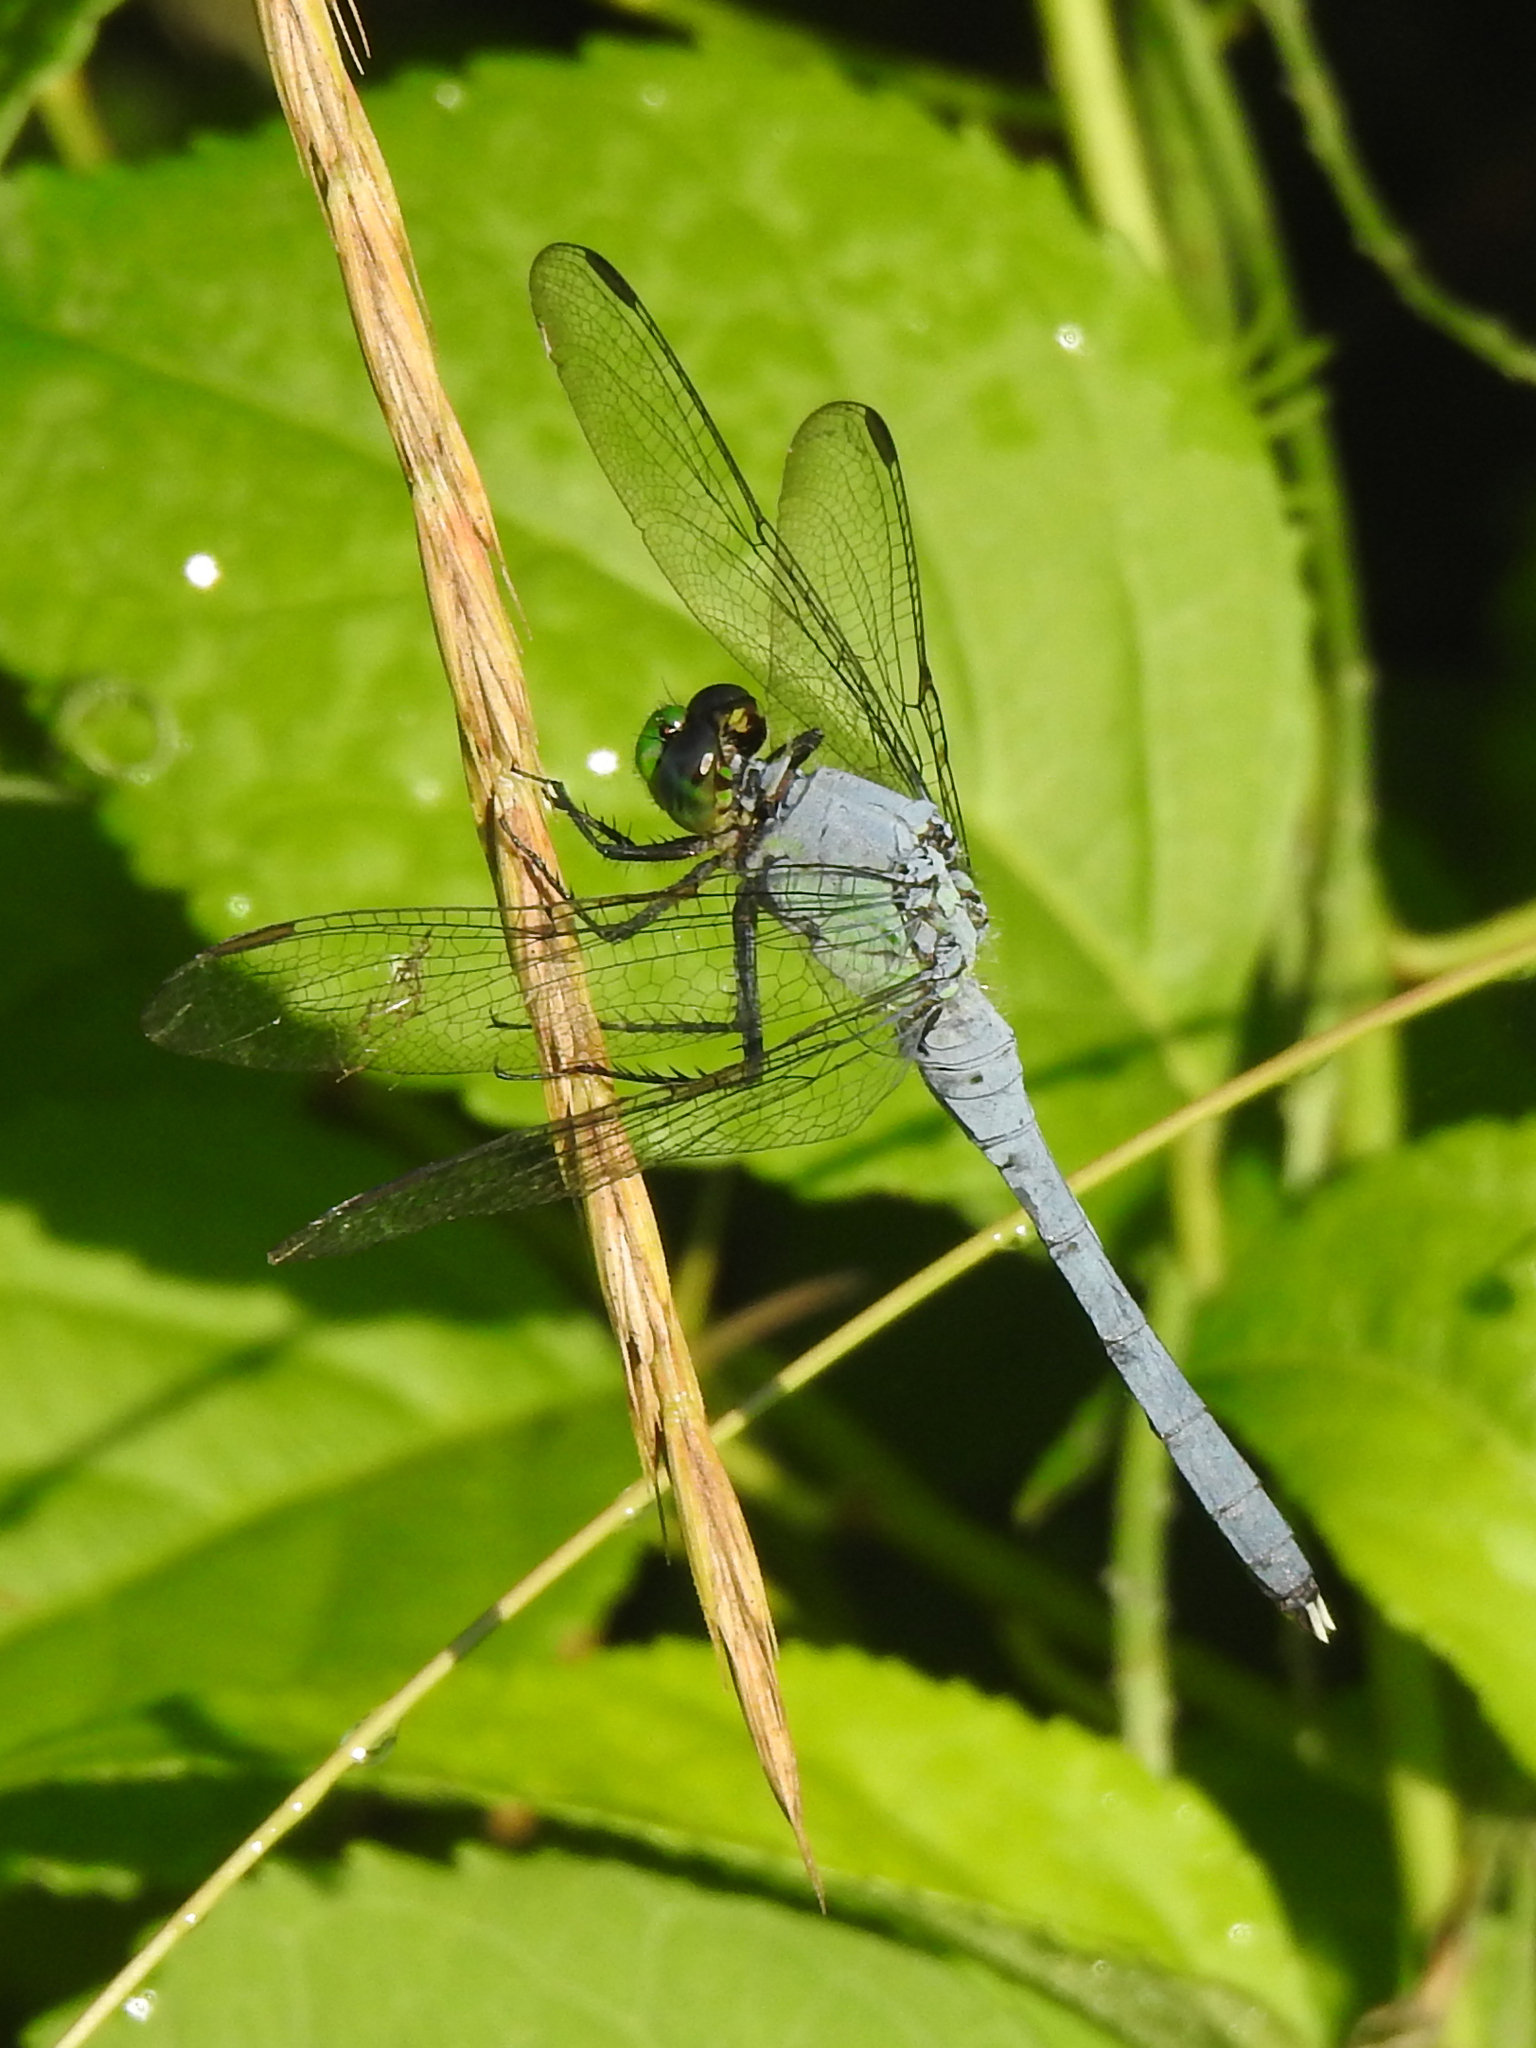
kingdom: Animalia
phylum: Arthropoda
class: Insecta
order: Odonata
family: Libellulidae
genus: Erythemis
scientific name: Erythemis simplicicollis
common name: Eastern pondhawk
